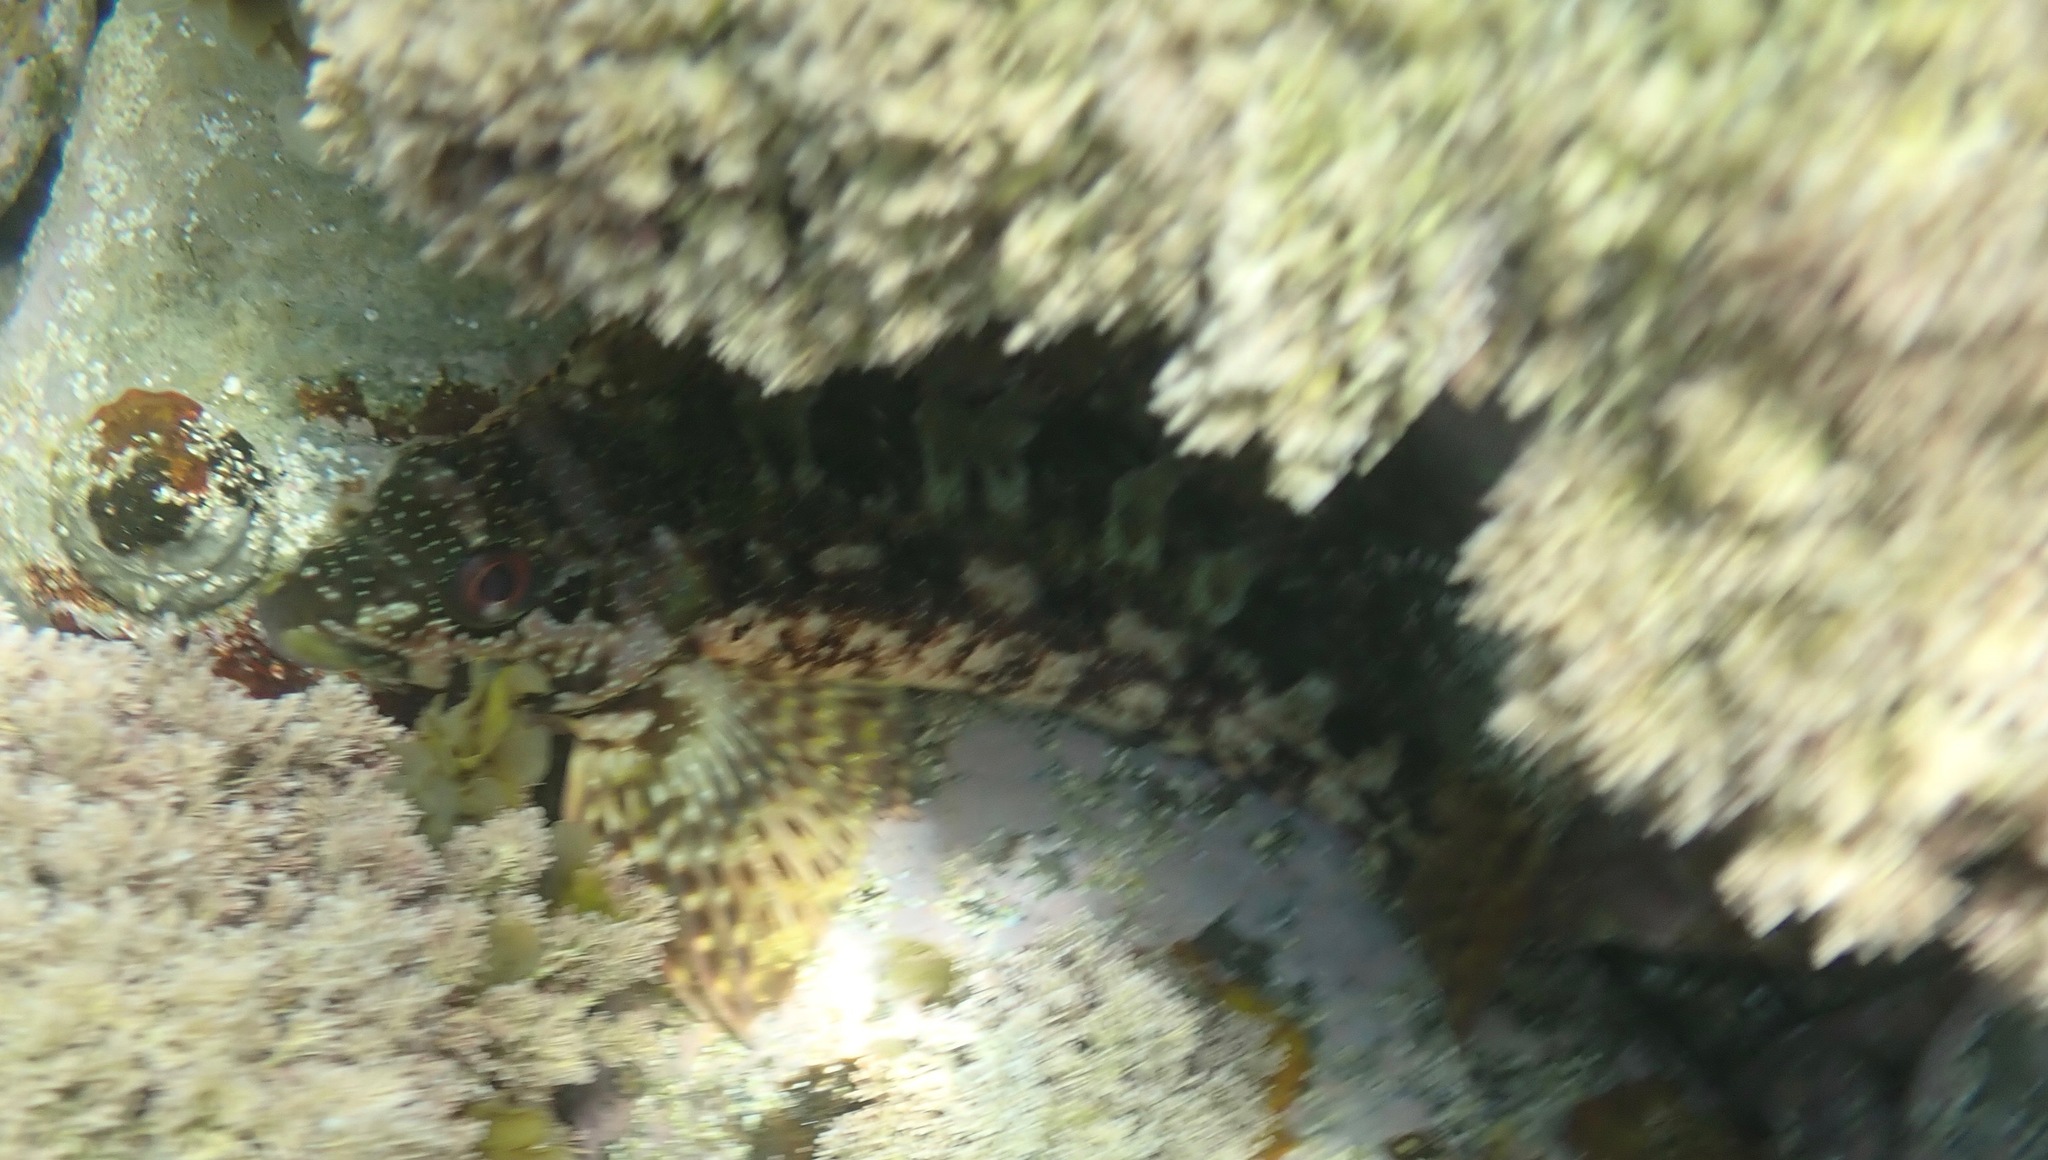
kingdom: Animalia
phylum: Chordata
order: Perciformes
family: Aplodactylidae
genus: Aplodactylus
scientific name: Aplodactylus lophodon
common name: Cockatoo fish
